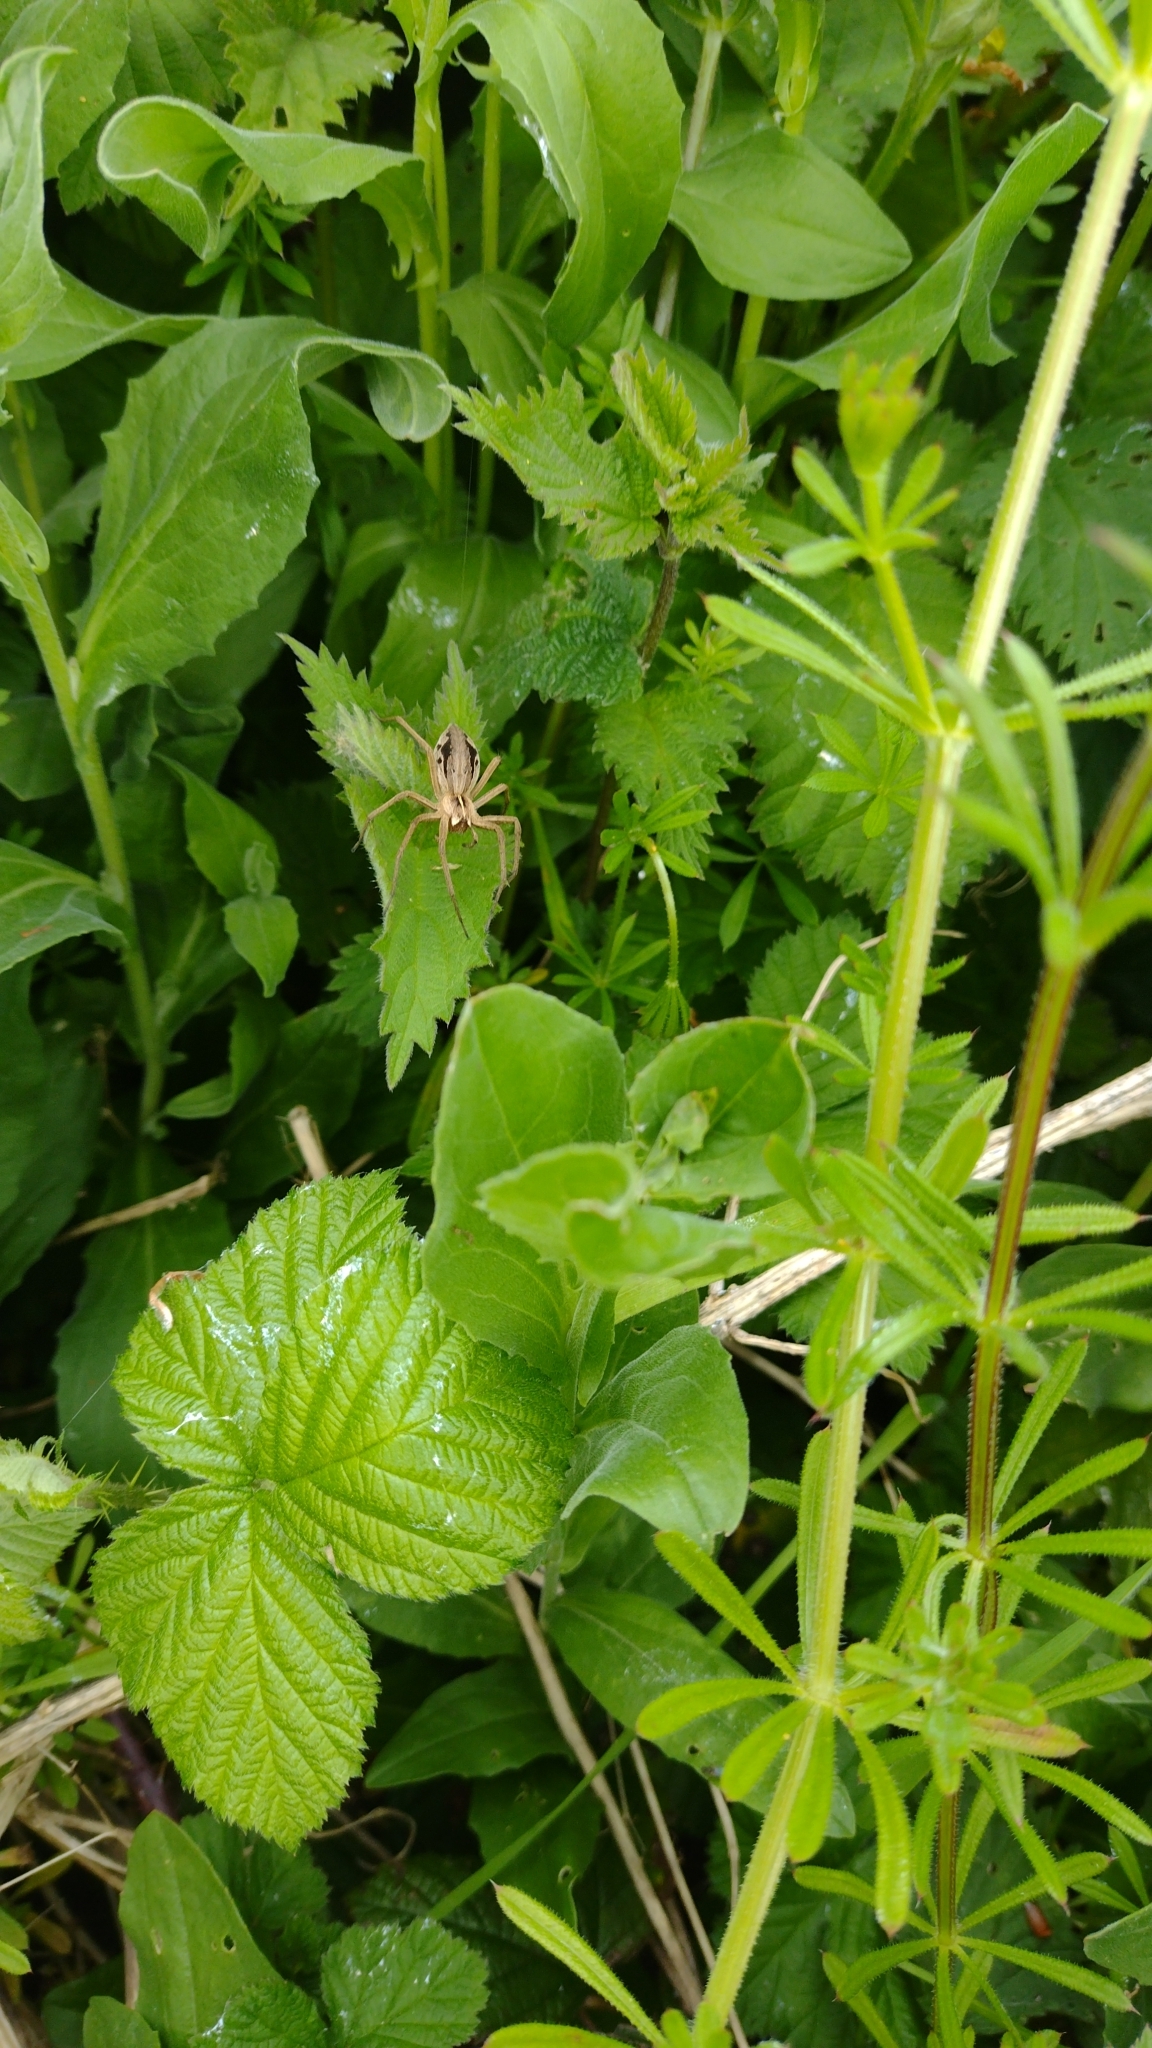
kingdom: Animalia
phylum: Arthropoda
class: Arachnida
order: Araneae
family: Pisauridae
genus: Pisaura
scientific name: Pisaura mirabilis
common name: Tent spider
